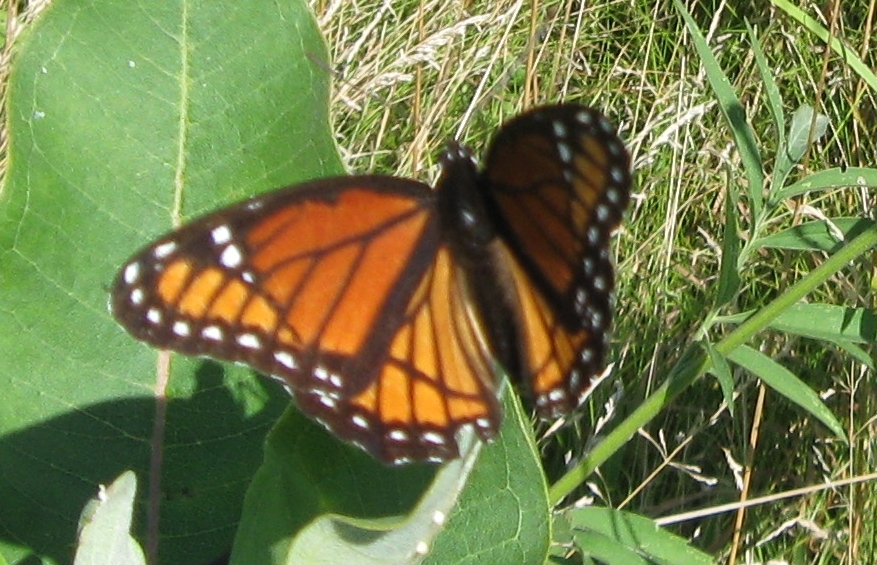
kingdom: Animalia
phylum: Arthropoda
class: Insecta
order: Lepidoptera
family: Nymphalidae
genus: Limenitis
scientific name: Limenitis archippus
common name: Viceroy
